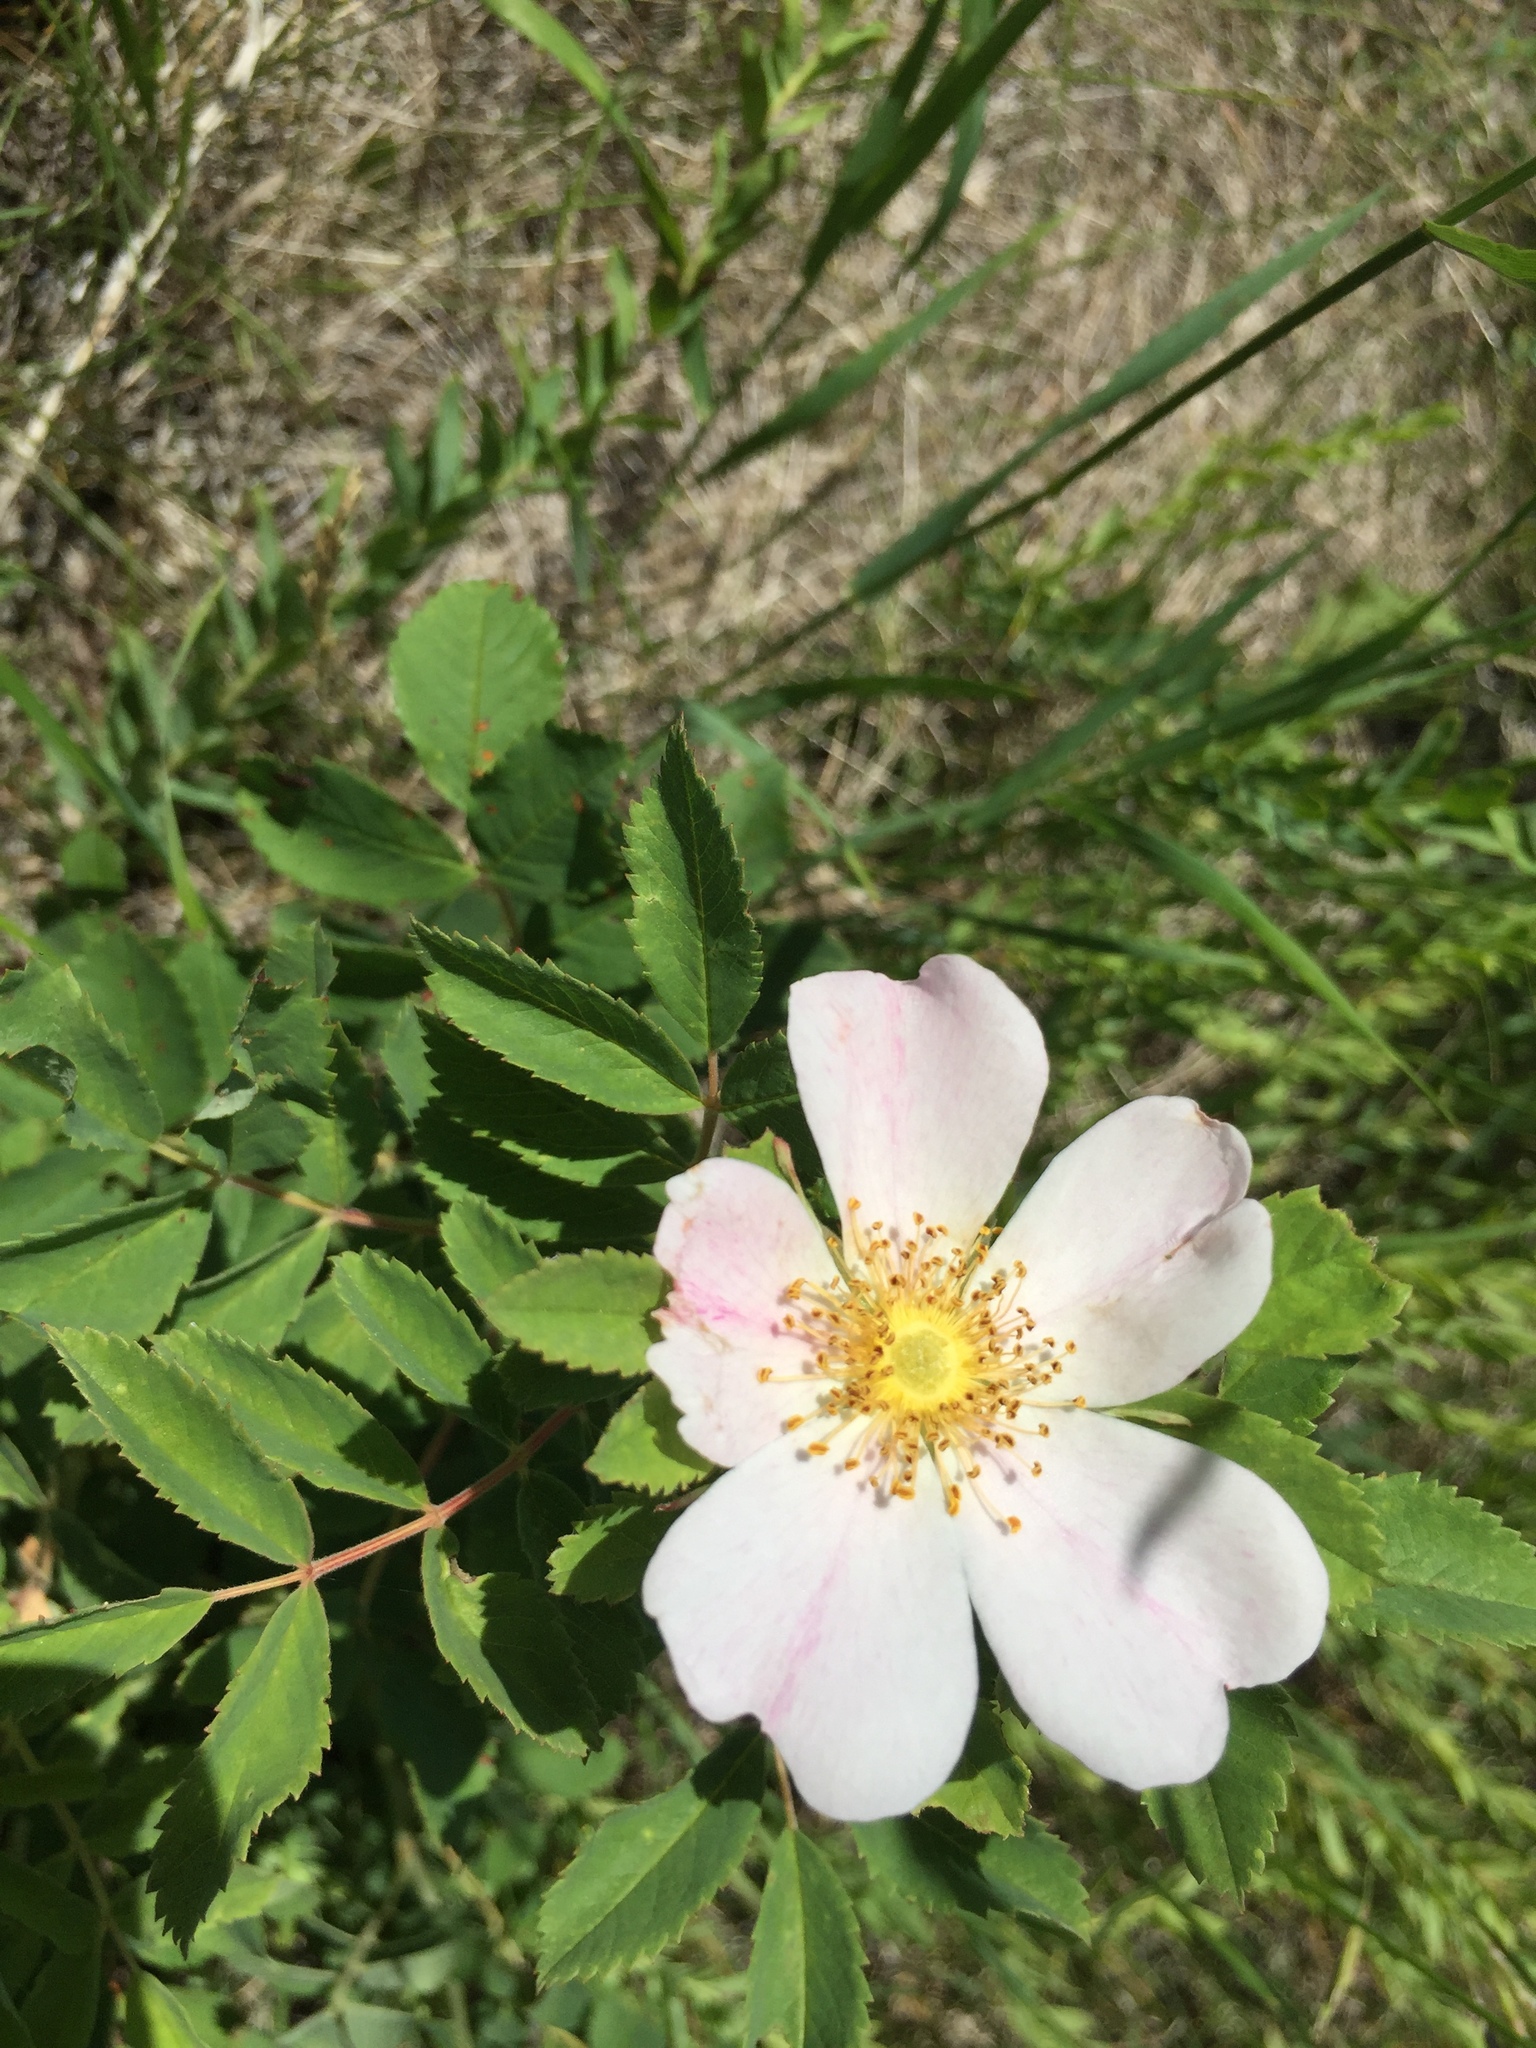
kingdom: Plantae
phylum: Tracheophyta
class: Magnoliopsida
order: Rosales
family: Rosaceae
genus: Rosa
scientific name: Rosa arkansana
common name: Prairie rose
